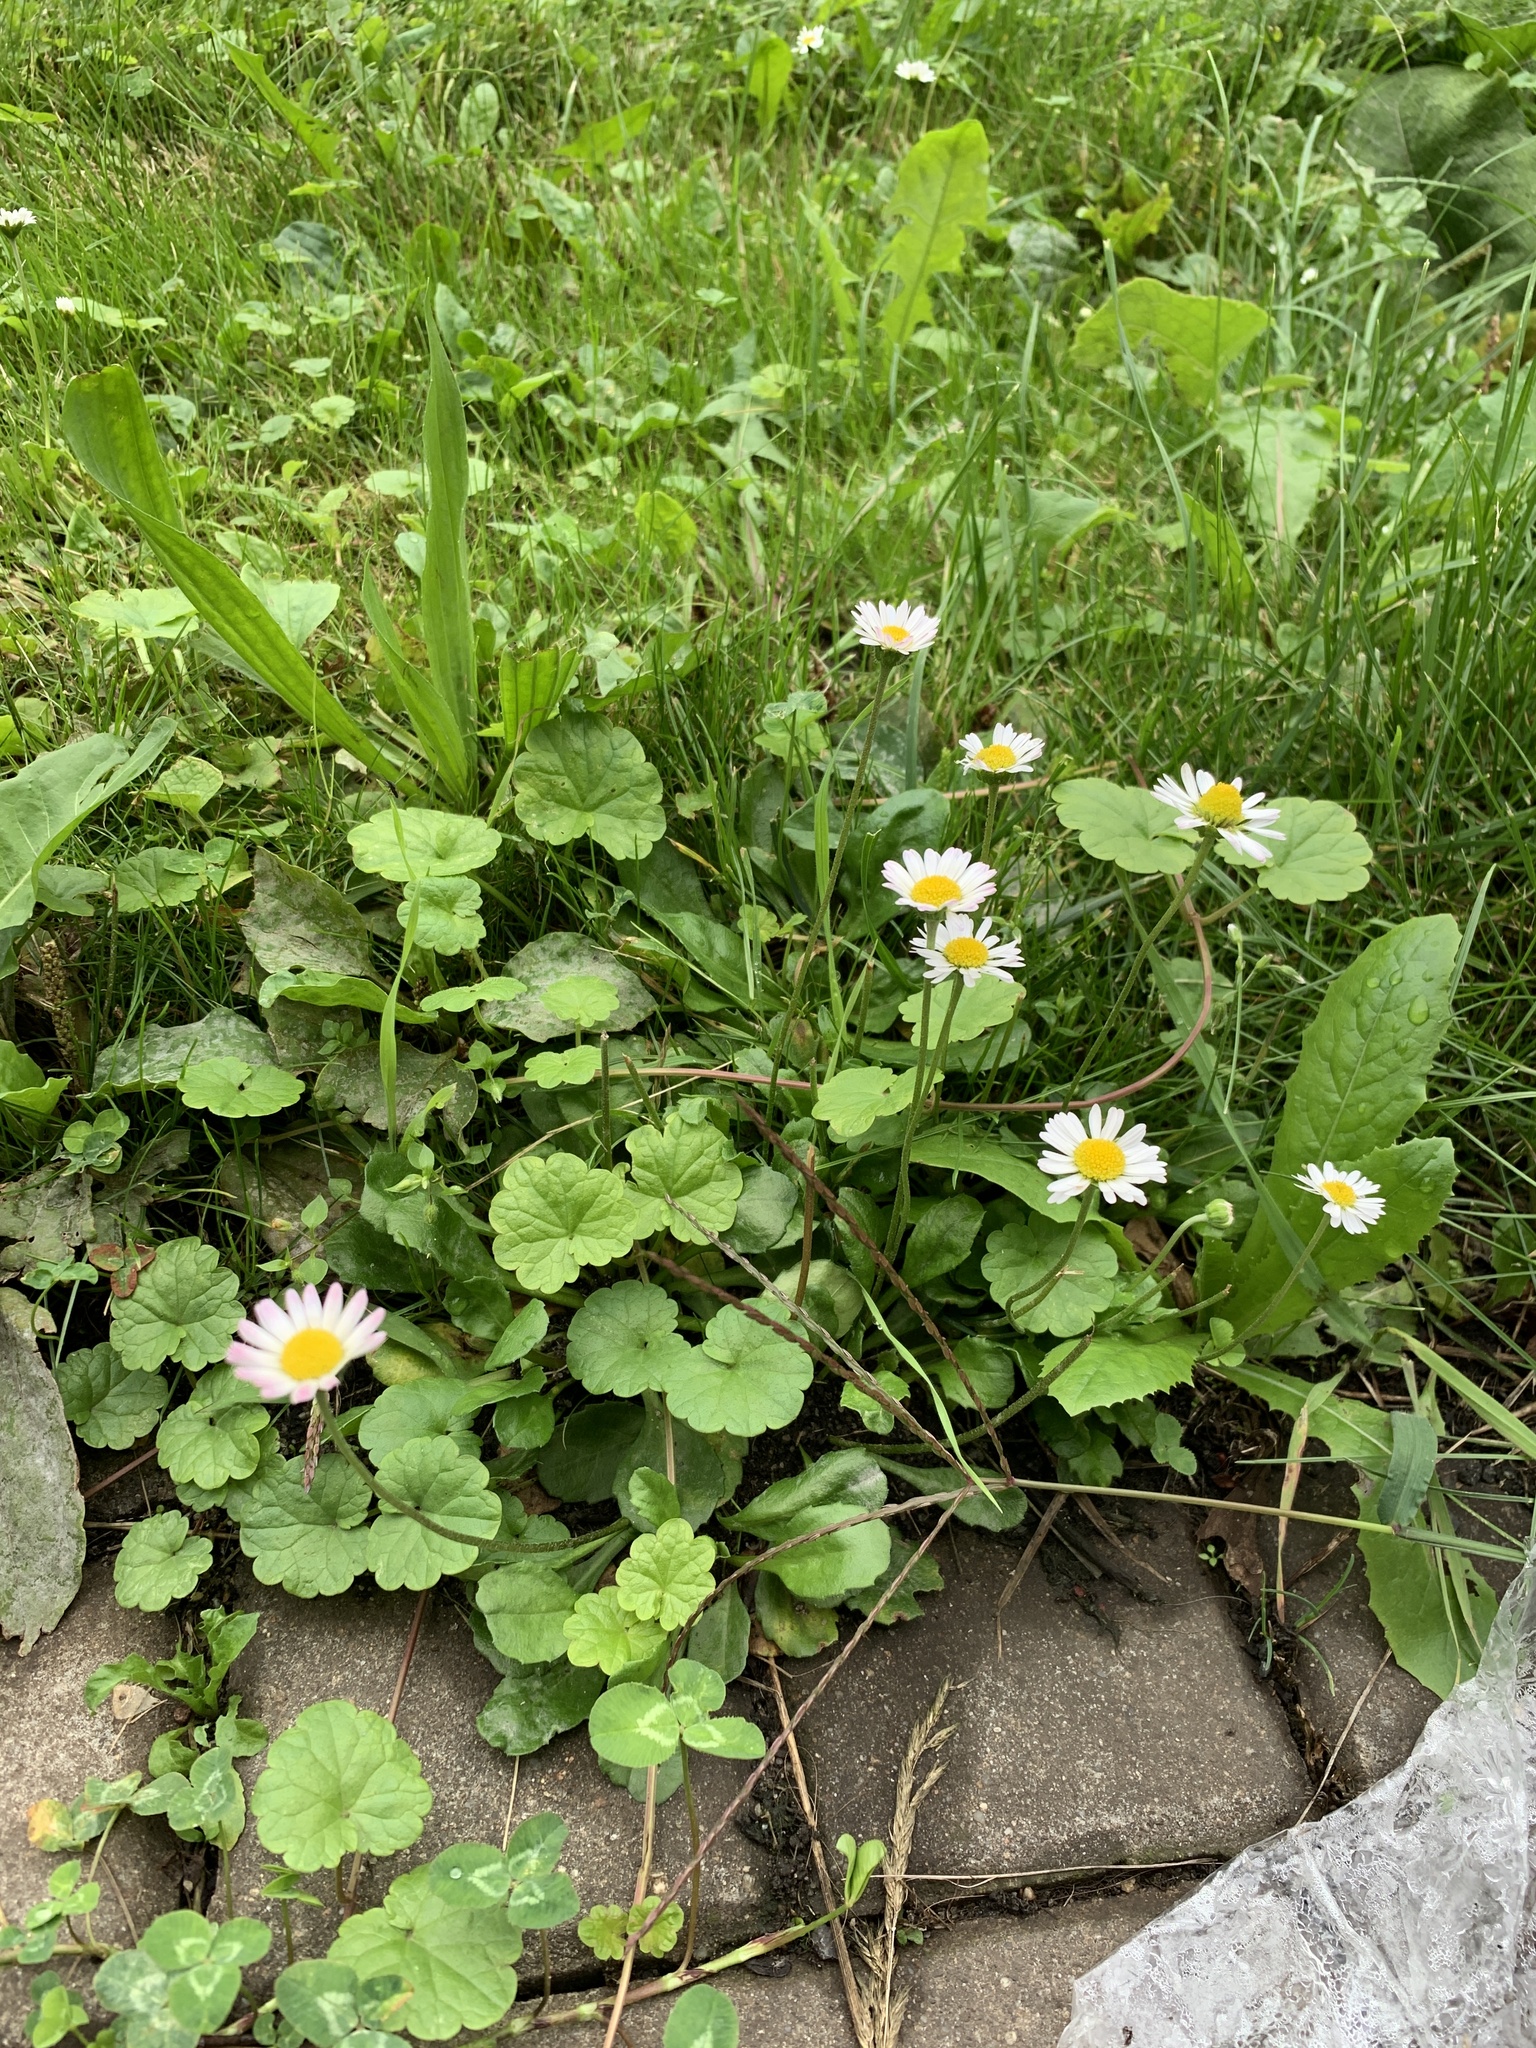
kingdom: Plantae
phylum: Tracheophyta
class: Magnoliopsida
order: Asterales
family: Asteraceae
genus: Bellis
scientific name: Bellis perennis
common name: Lawndaisy
